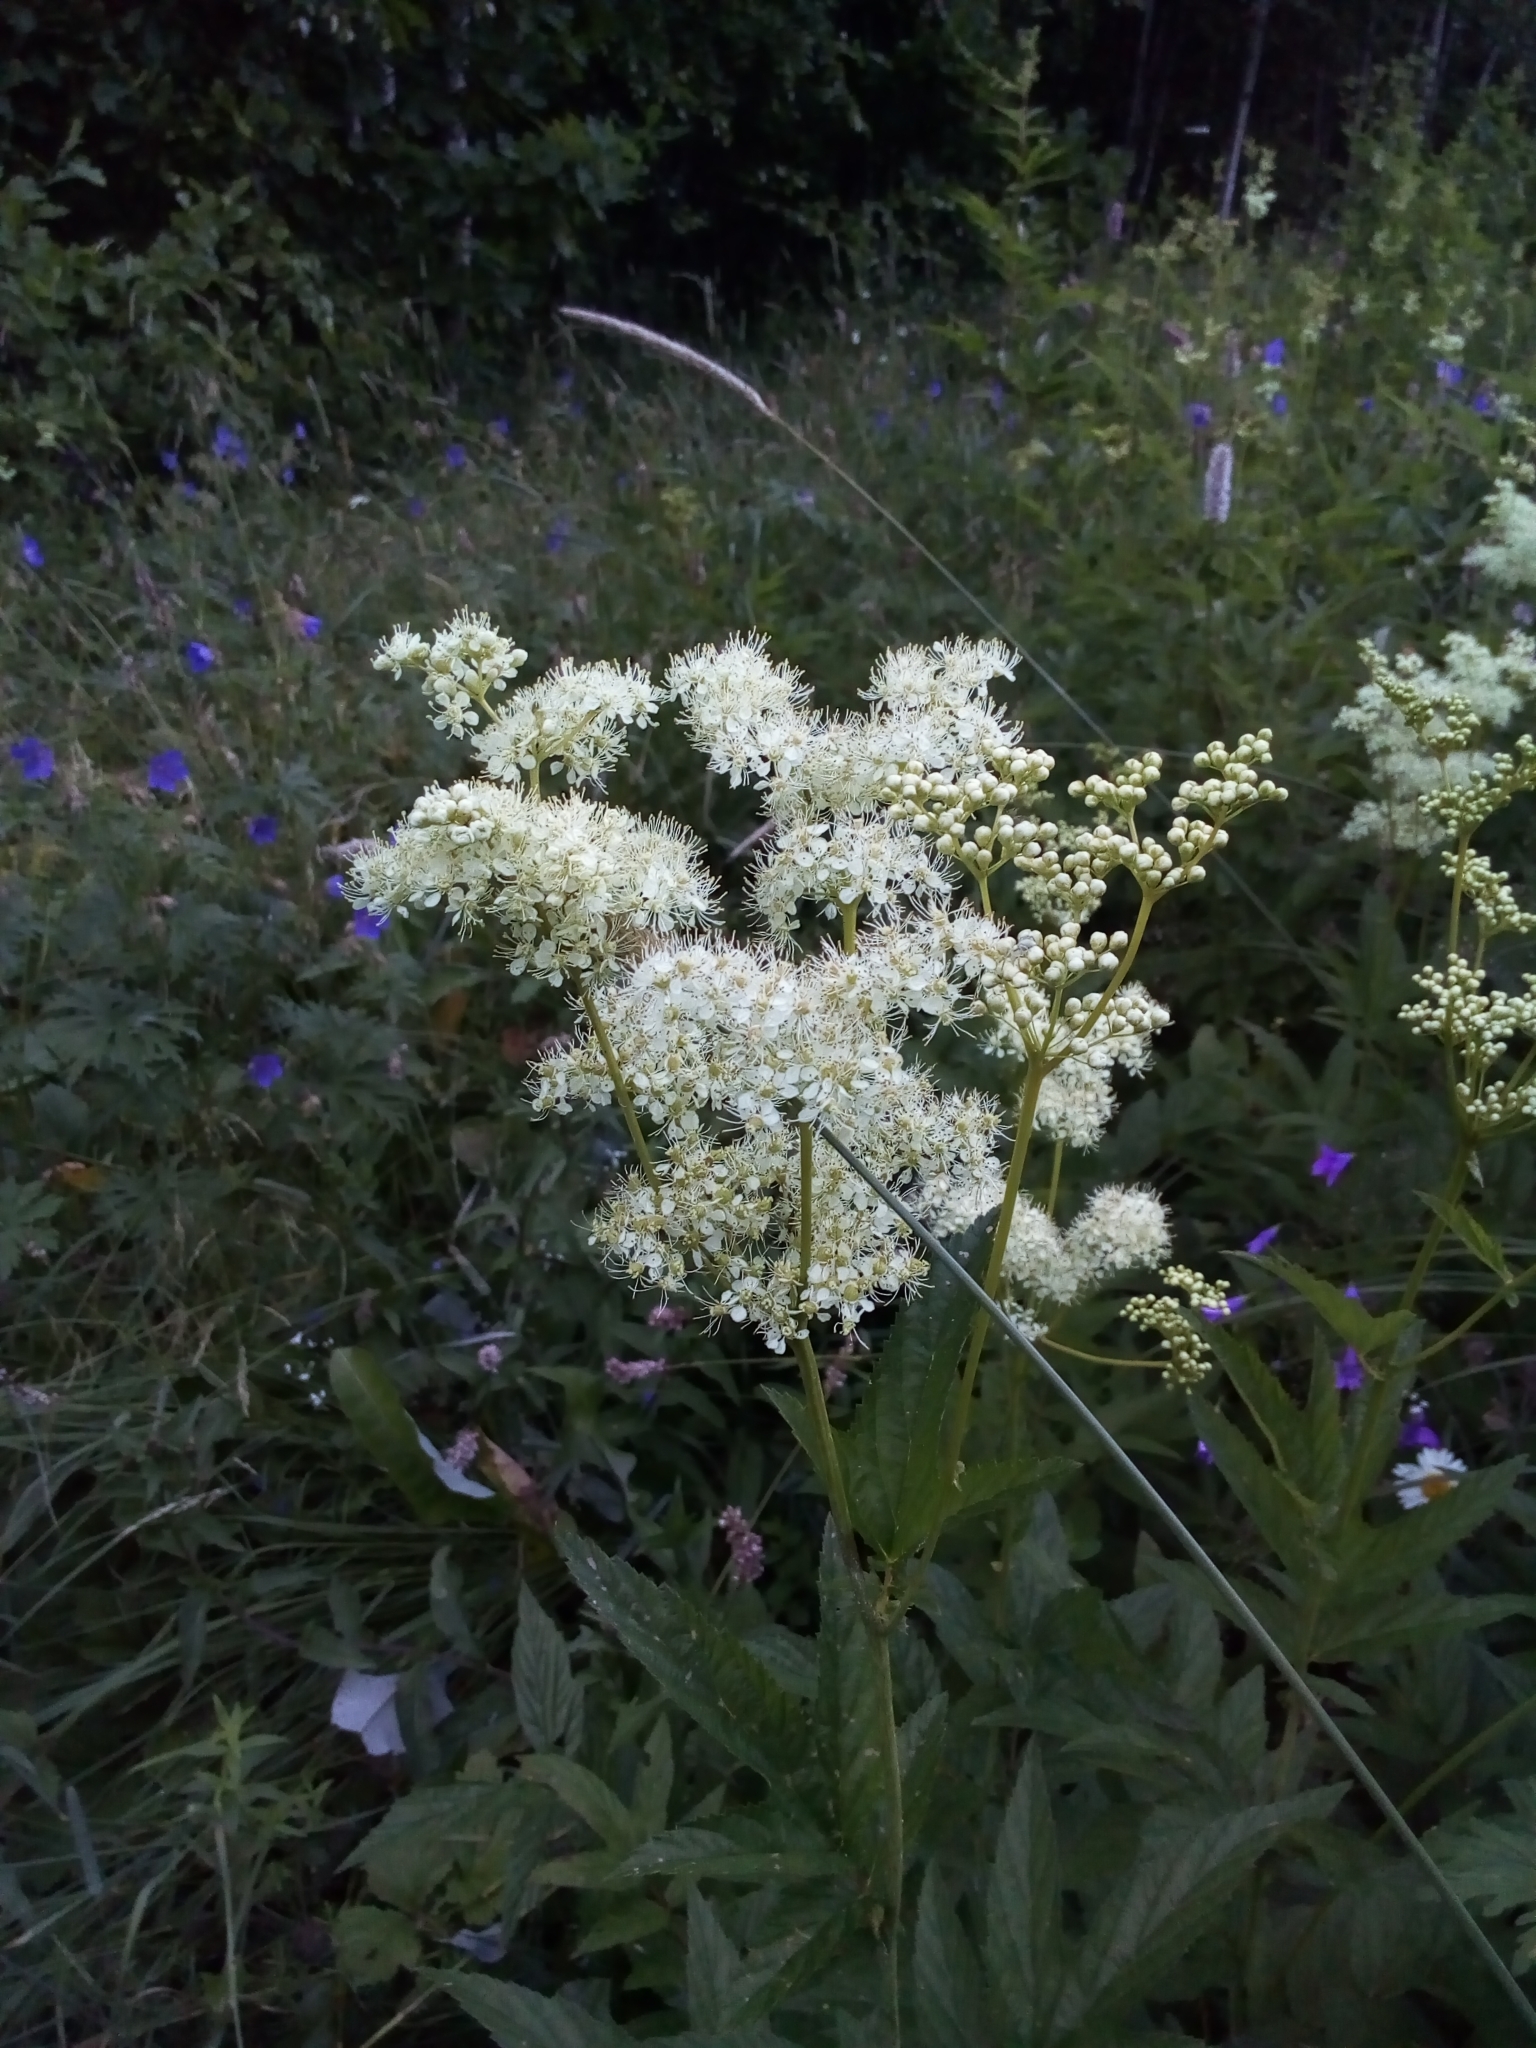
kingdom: Plantae
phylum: Tracheophyta
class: Magnoliopsida
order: Rosales
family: Rosaceae
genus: Filipendula
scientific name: Filipendula ulmaria
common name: Meadowsweet
